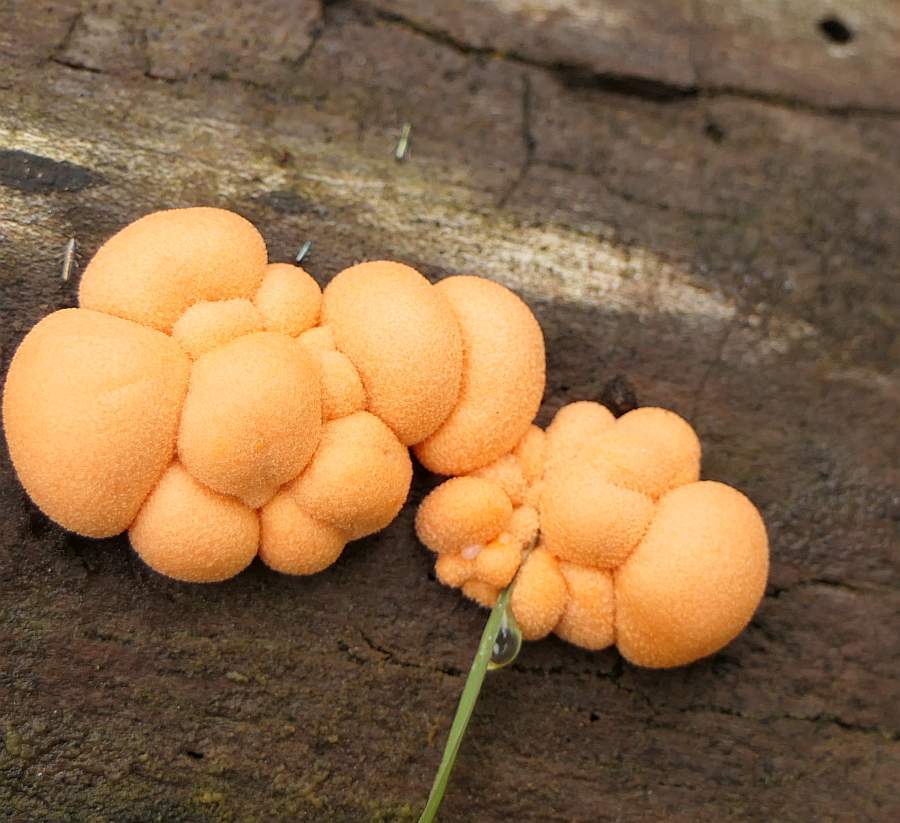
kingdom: Protozoa
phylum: Mycetozoa
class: Myxomycetes
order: Cribrariales
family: Tubiferaceae
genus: Lycogala
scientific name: Lycogala epidendrum
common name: Wolf's milk
